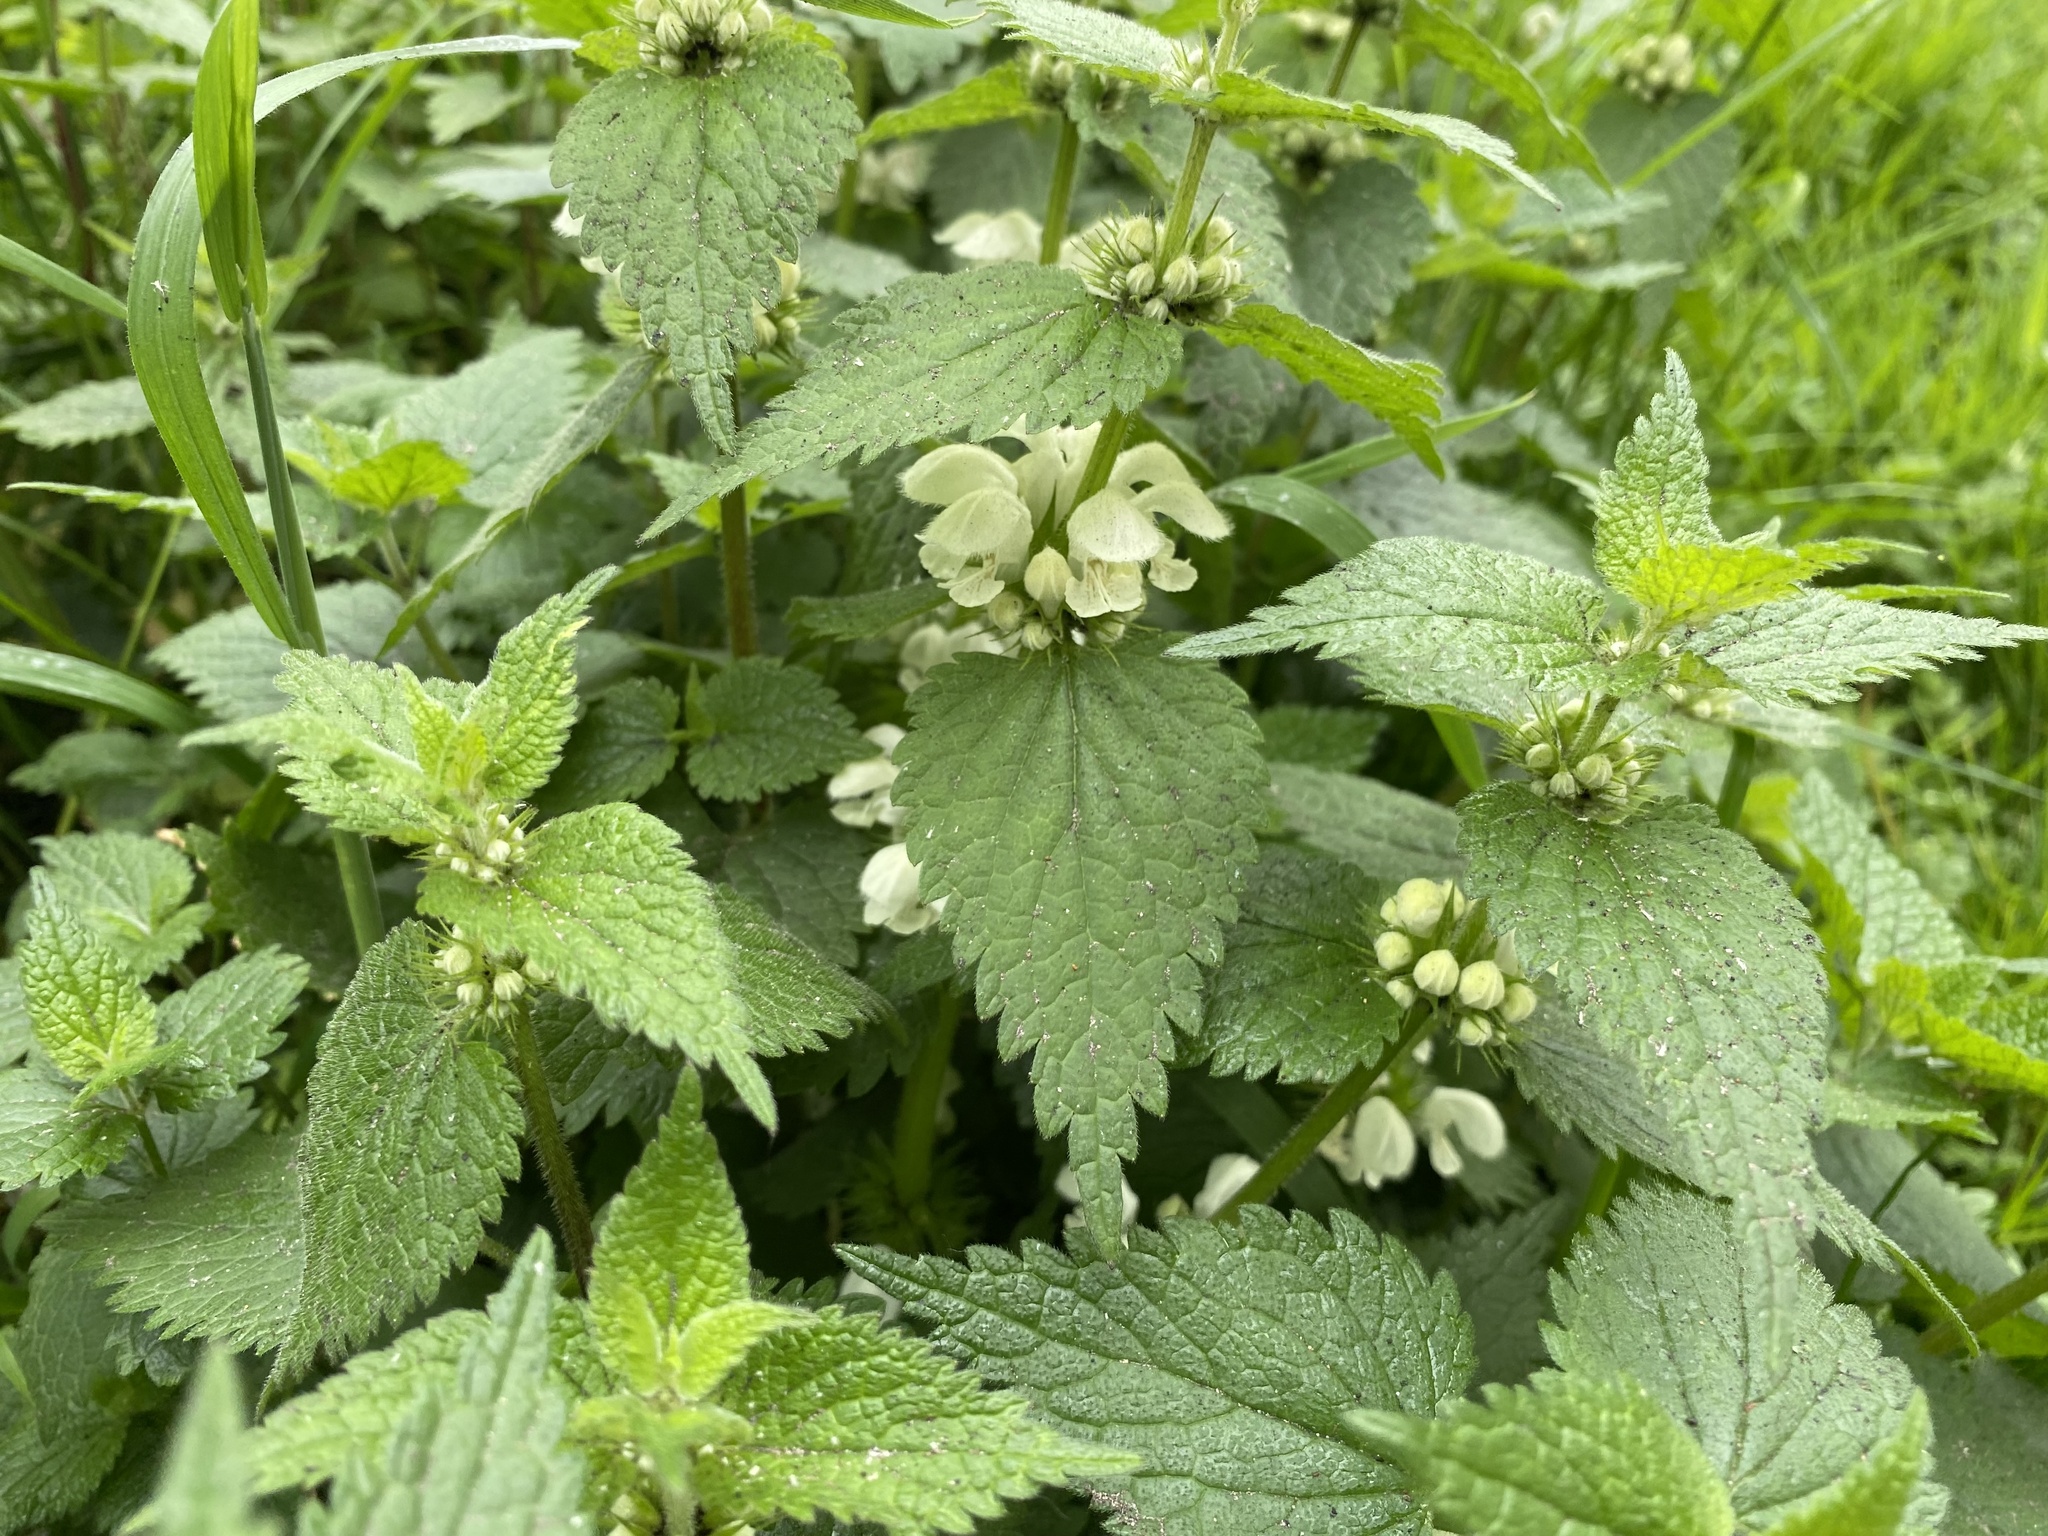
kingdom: Plantae
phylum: Tracheophyta
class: Magnoliopsida
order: Lamiales
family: Lamiaceae
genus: Lamium
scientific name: Lamium album
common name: White dead-nettle
